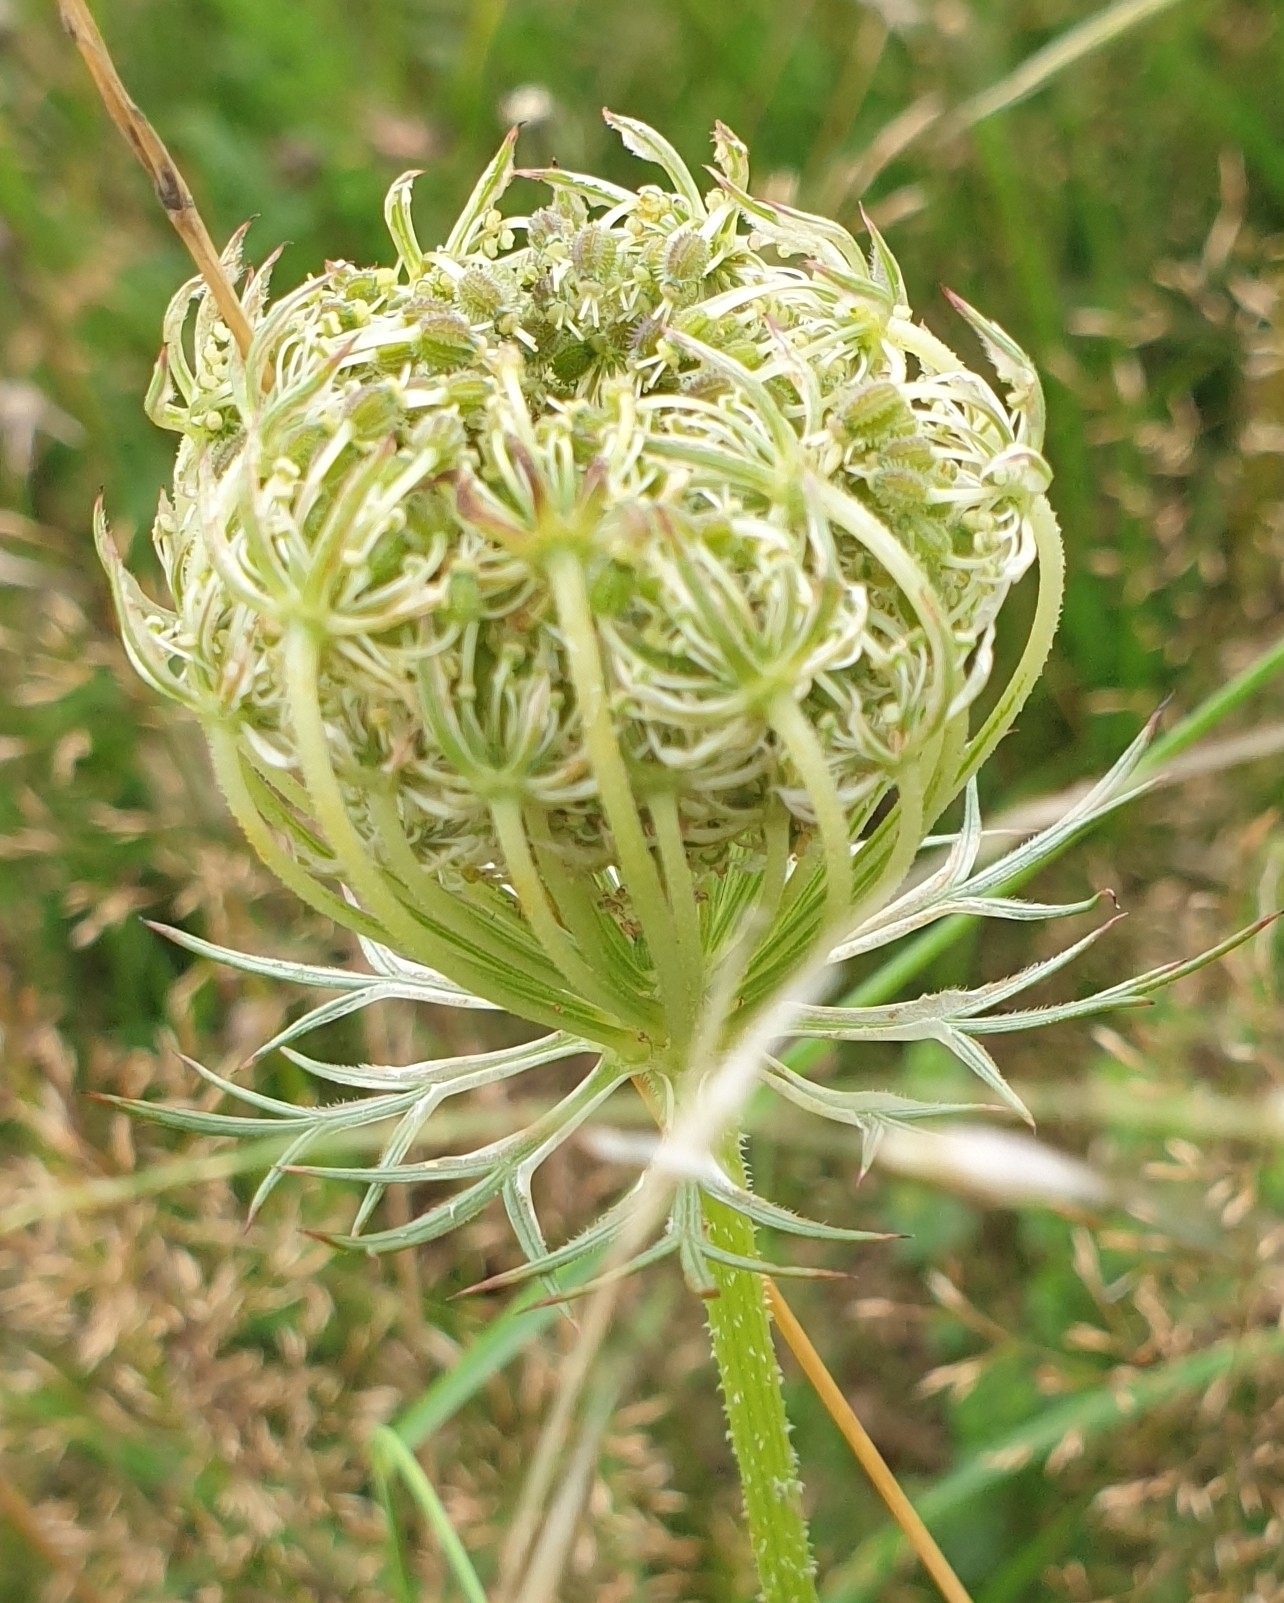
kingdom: Plantae
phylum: Tracheophyta
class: Magnoliopsida
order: Apiales
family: Apiaceae
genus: Daucus
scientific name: Daucus carota
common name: Wild carrot
